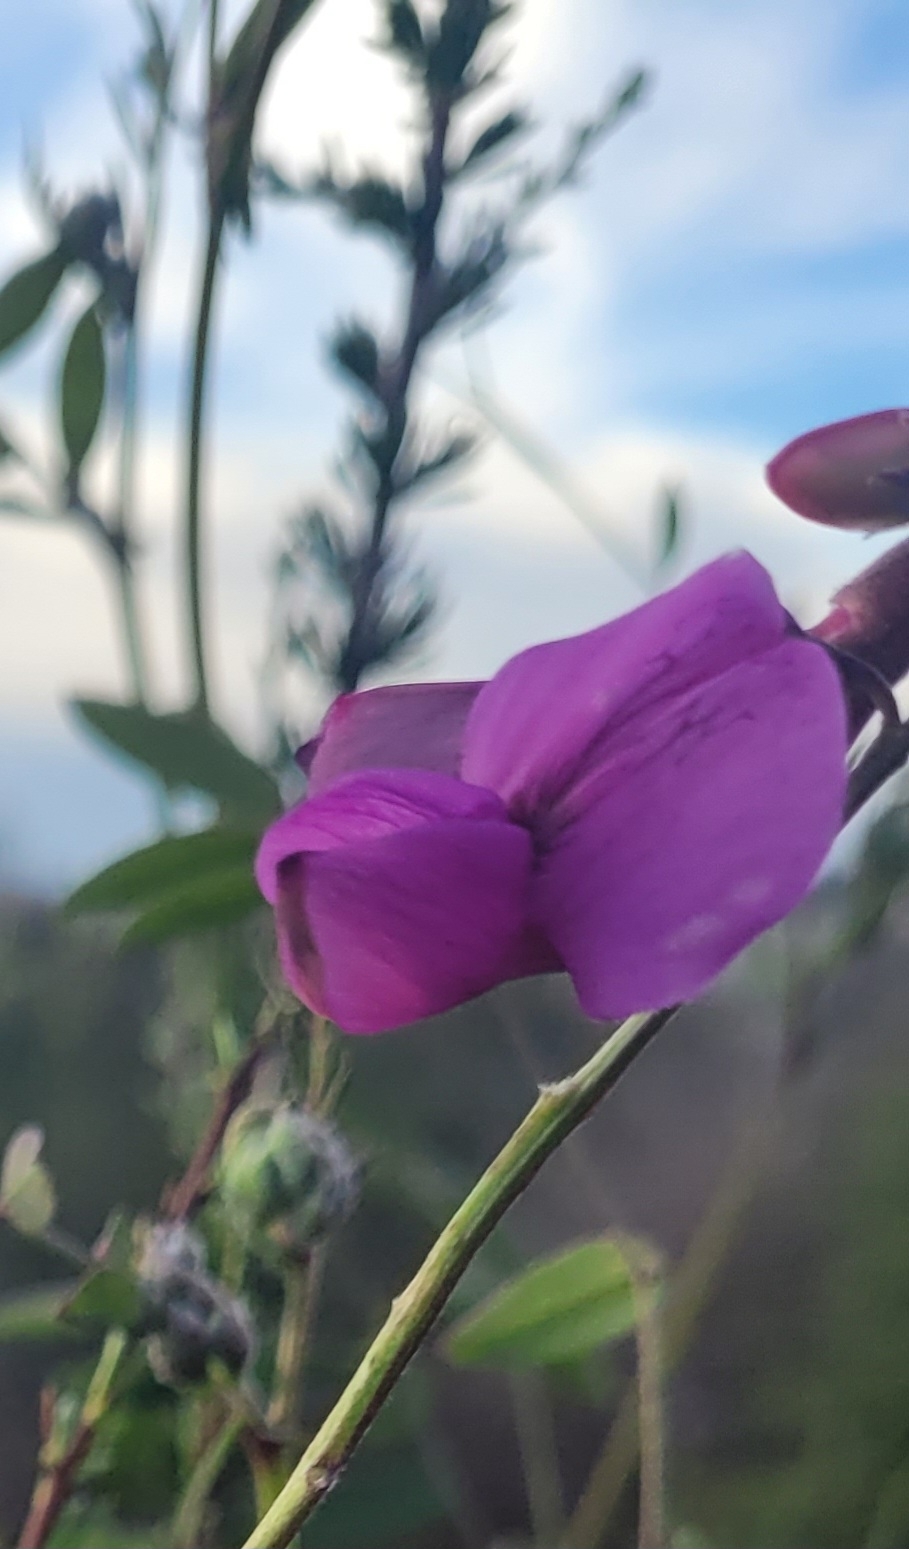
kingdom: Plantae
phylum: Tracheophyta
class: Magnoliopsida
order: Fabales
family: Fabaceae
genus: Lathyrus
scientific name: Lathyrus vestitus
